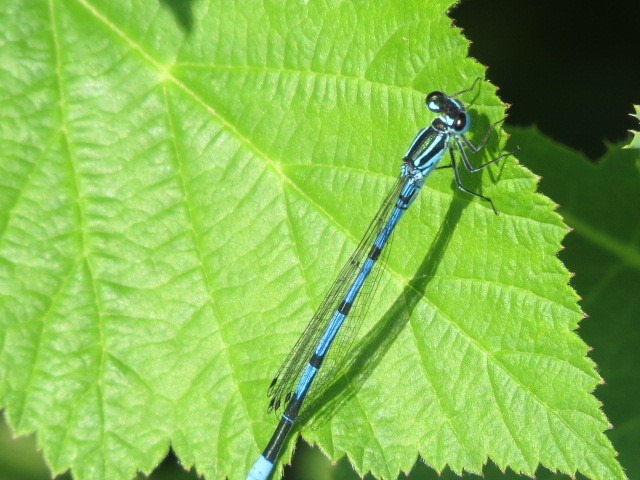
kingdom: Animalia
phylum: Arthropoda
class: Insecta
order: Odonata
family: Coenagrionidae
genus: Coenagrion
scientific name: Coenagrion puella
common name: Azure damselfly
